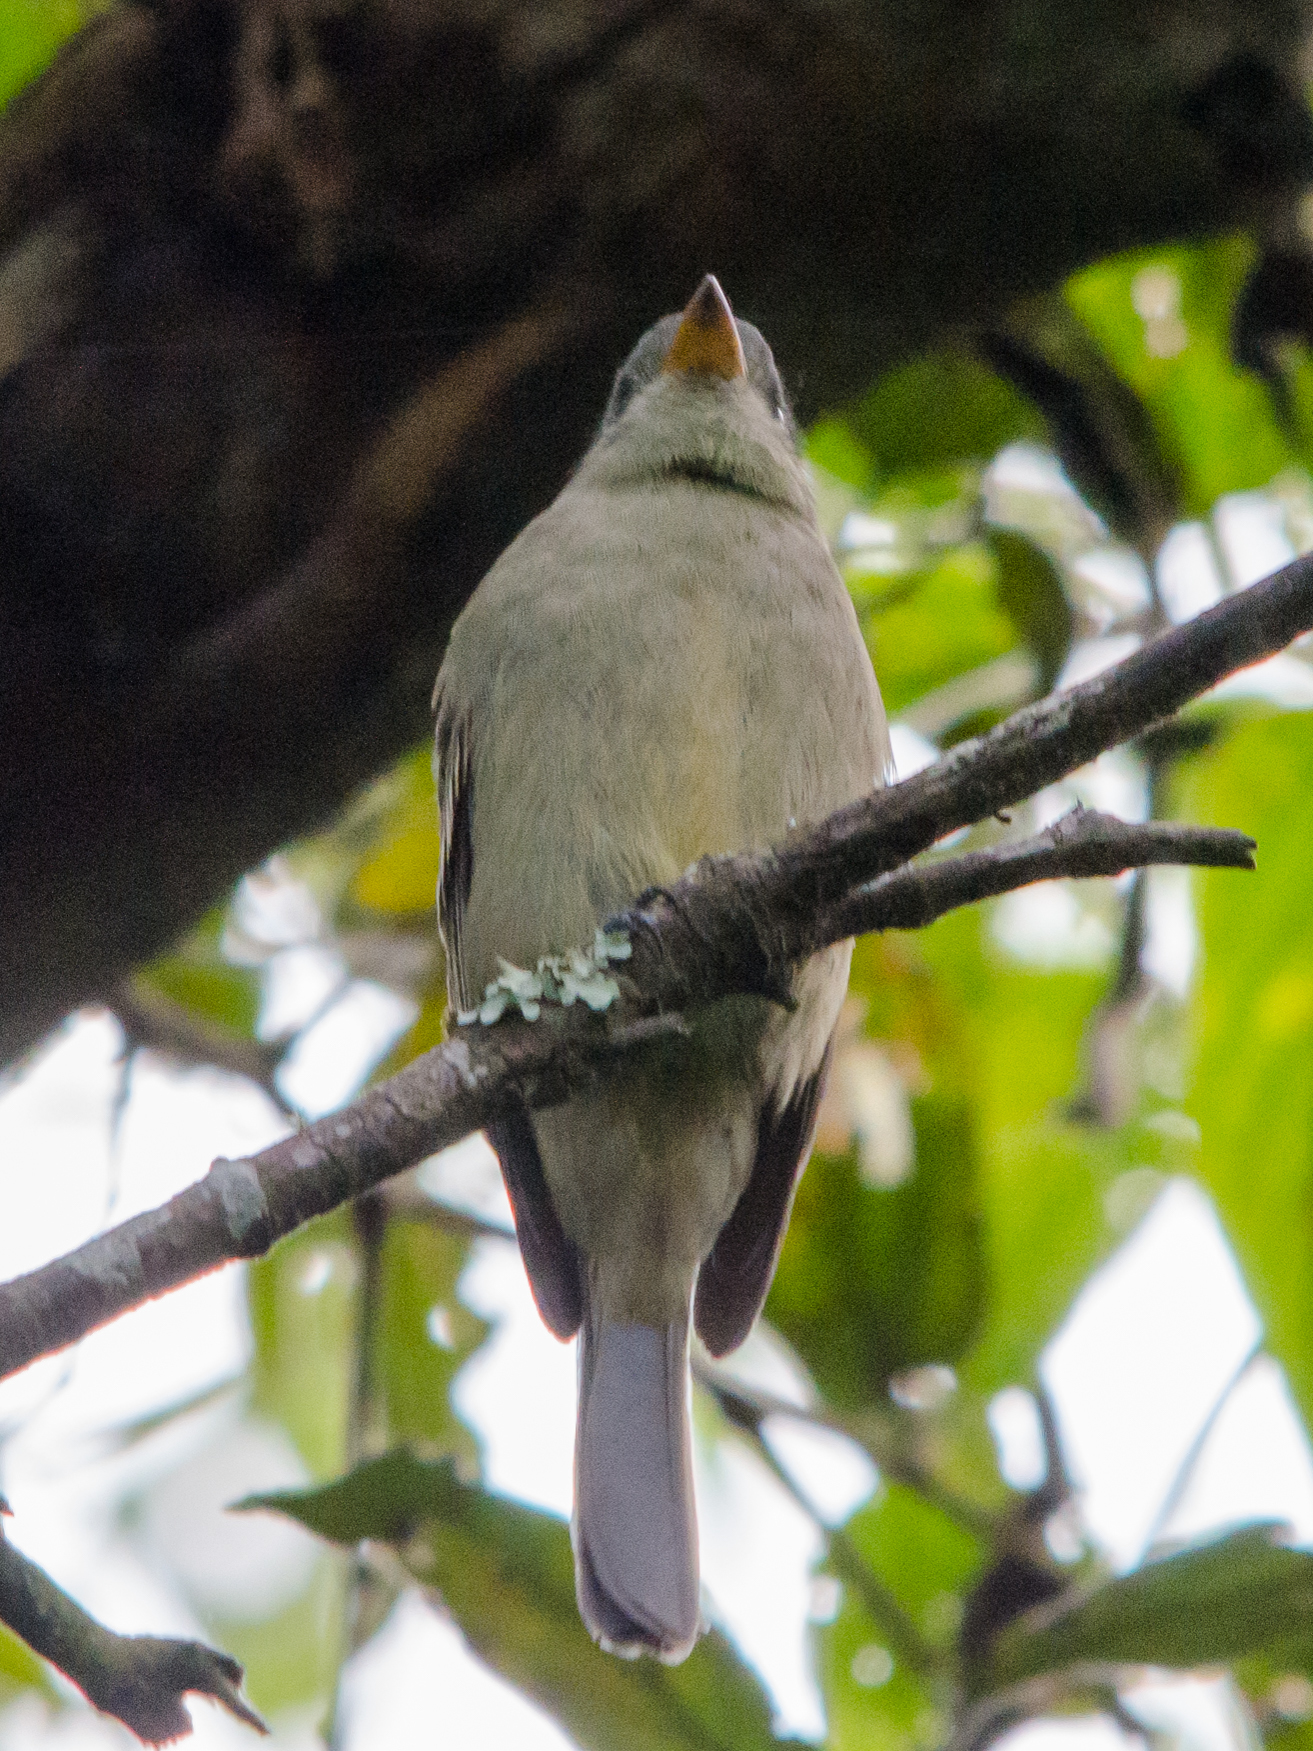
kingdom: Animalia
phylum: Chordata
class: Aves
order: Passeriformes
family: Tyrannidae
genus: Contopus
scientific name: Contopus pertinax
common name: Greater pewee
